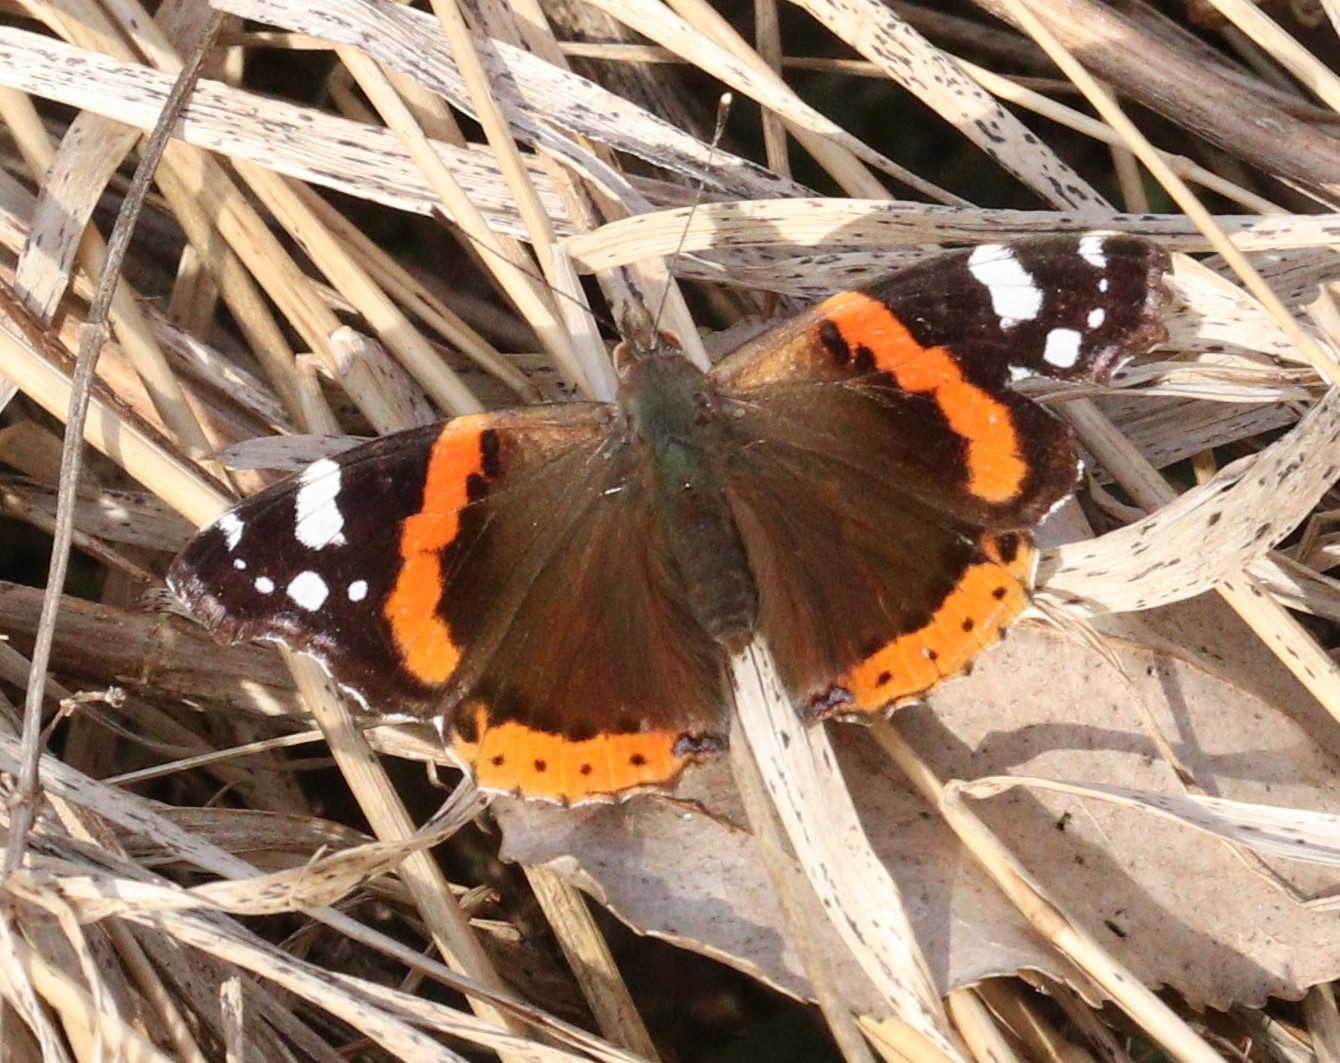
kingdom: Animalia
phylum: Arthropoda
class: Insecta
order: Lepidoptera
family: Nymphalidae
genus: Vanessa
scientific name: Vanessa atalanta
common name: Red admiral
